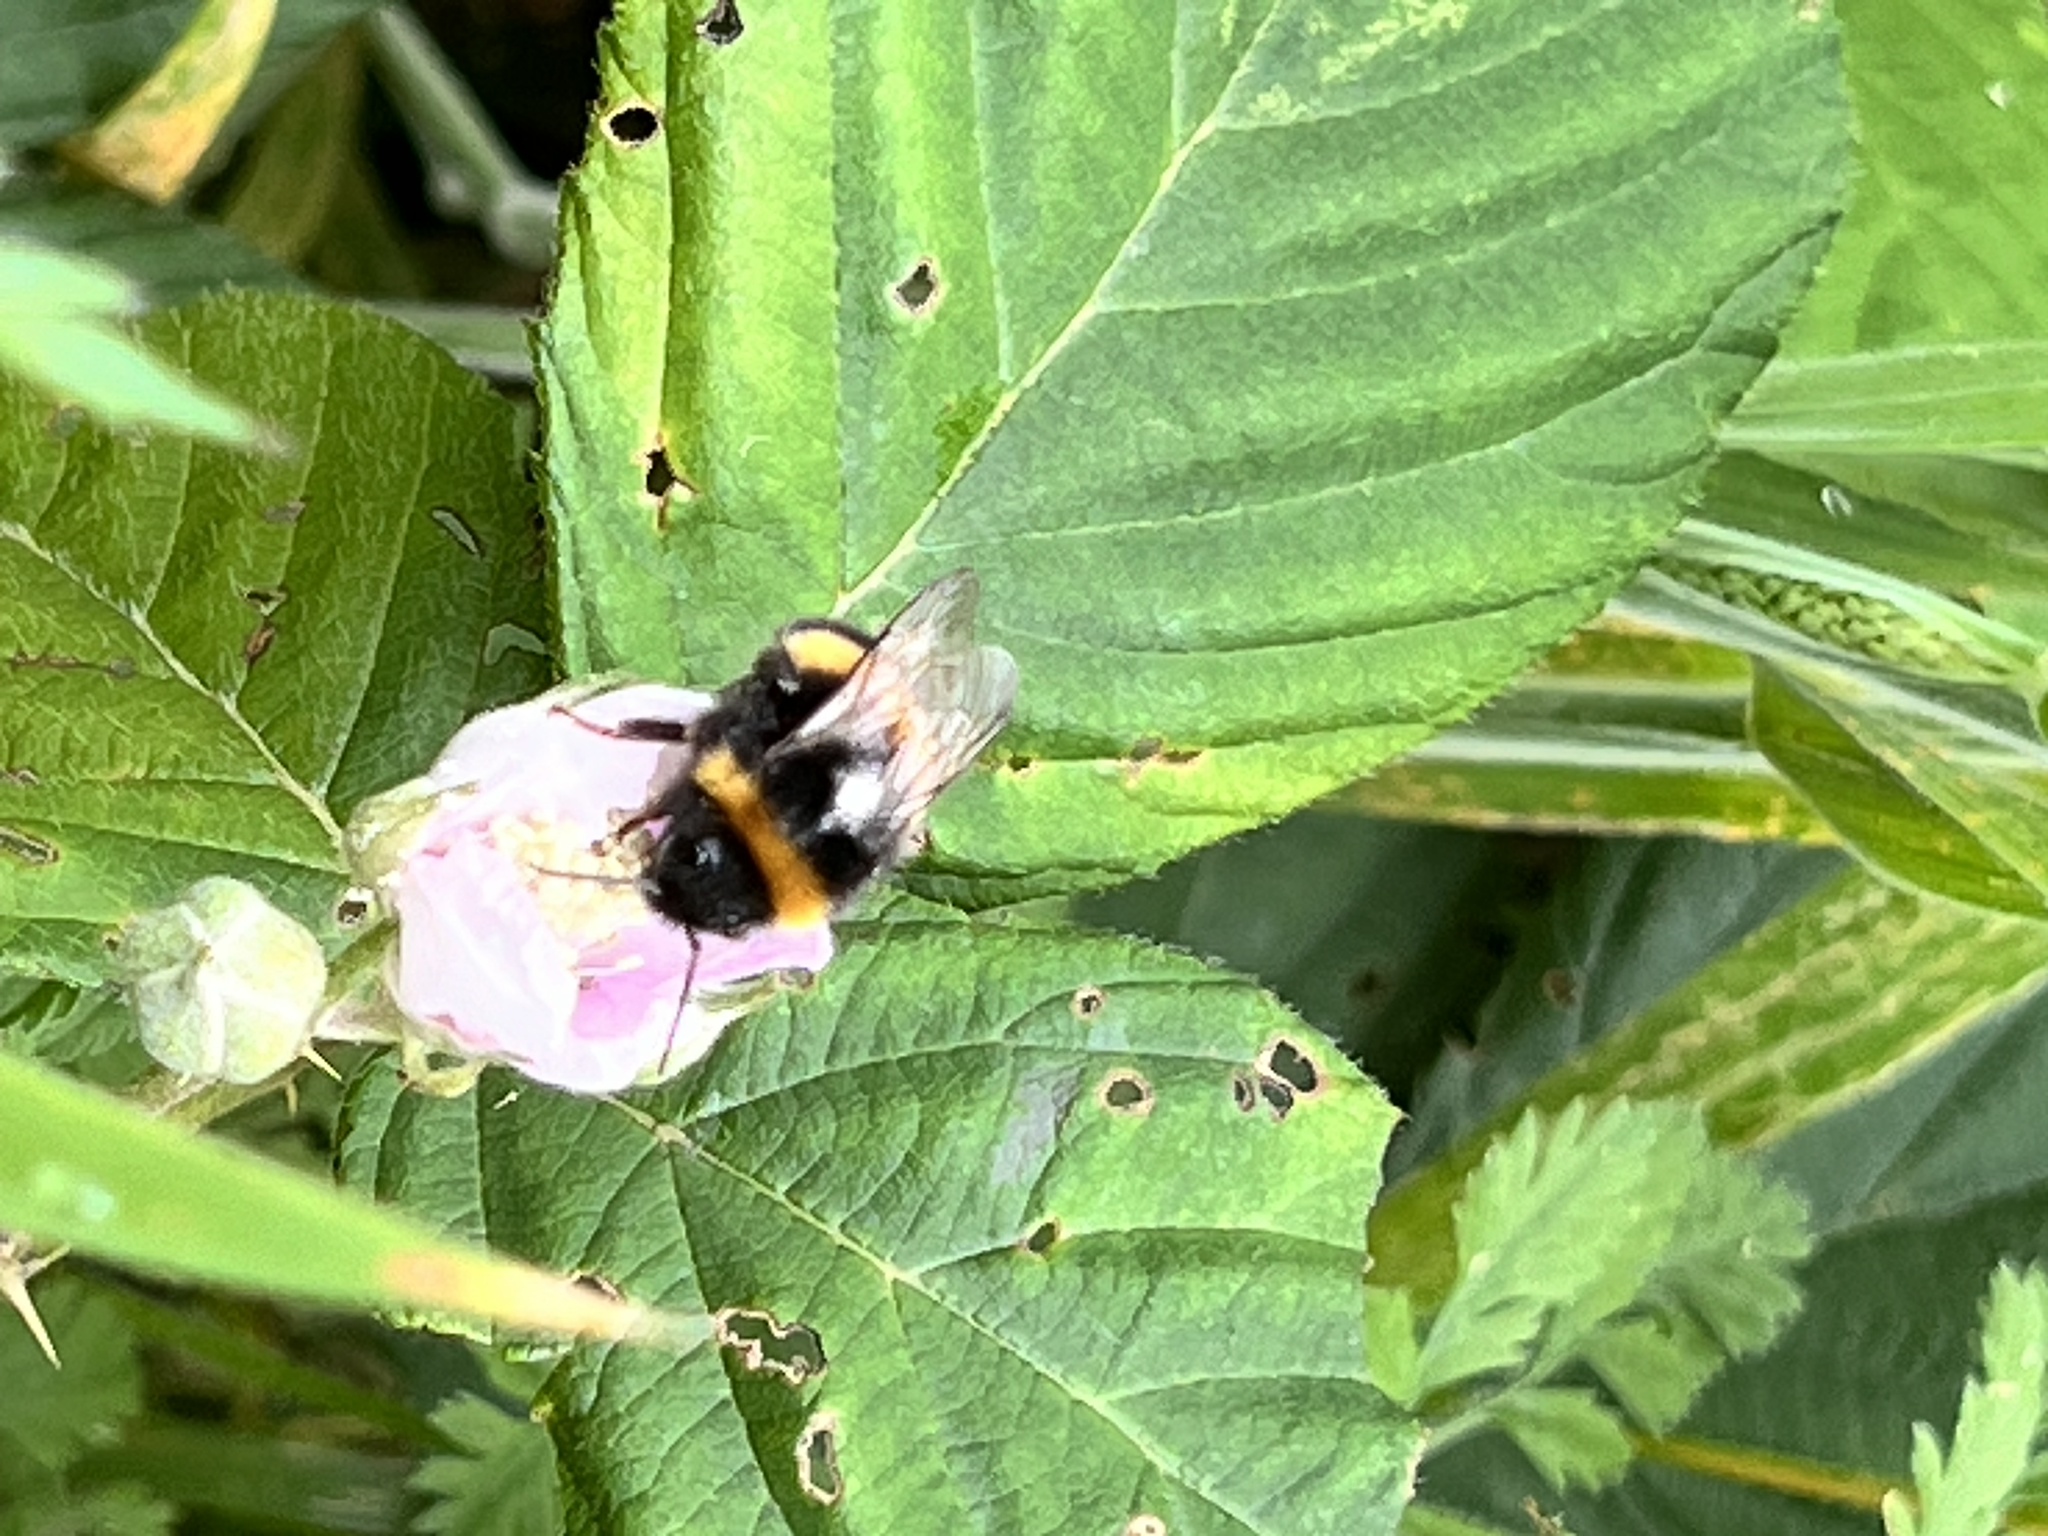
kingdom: Animalia
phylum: Arthropoda
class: Insecta
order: Hymenoptera
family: Apidae
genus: Bombus
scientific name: Bombus terrestris
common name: Buff-tailed bumblebee
